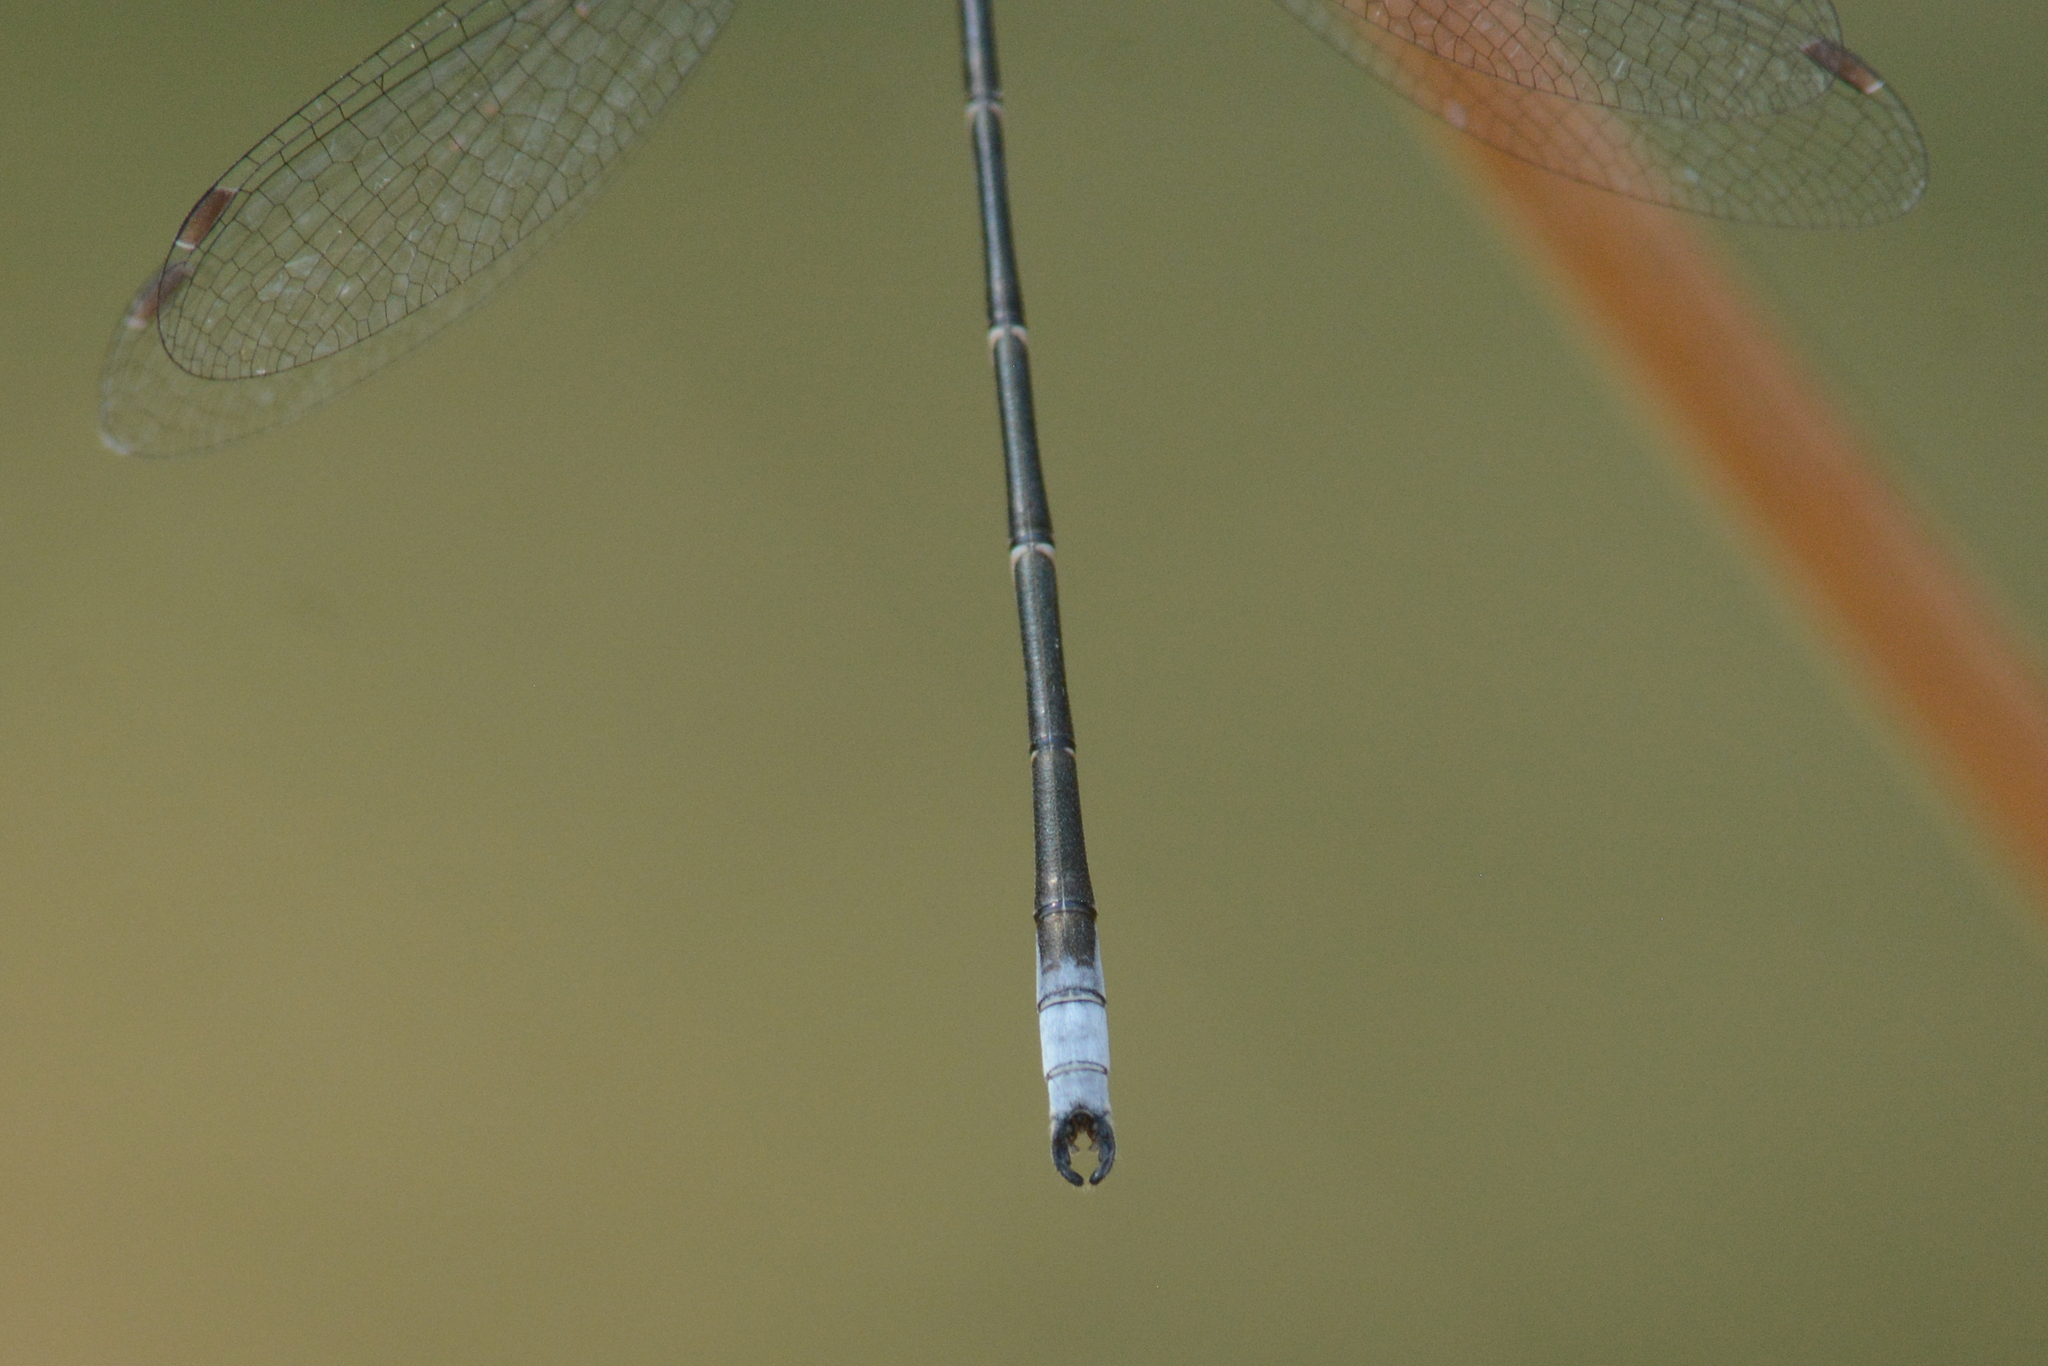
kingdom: Animalia
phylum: Arthropoda
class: Insecta
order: Odonata
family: Lestidae
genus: Lestes
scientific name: Lestes congener
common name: Spotted spreadwing
